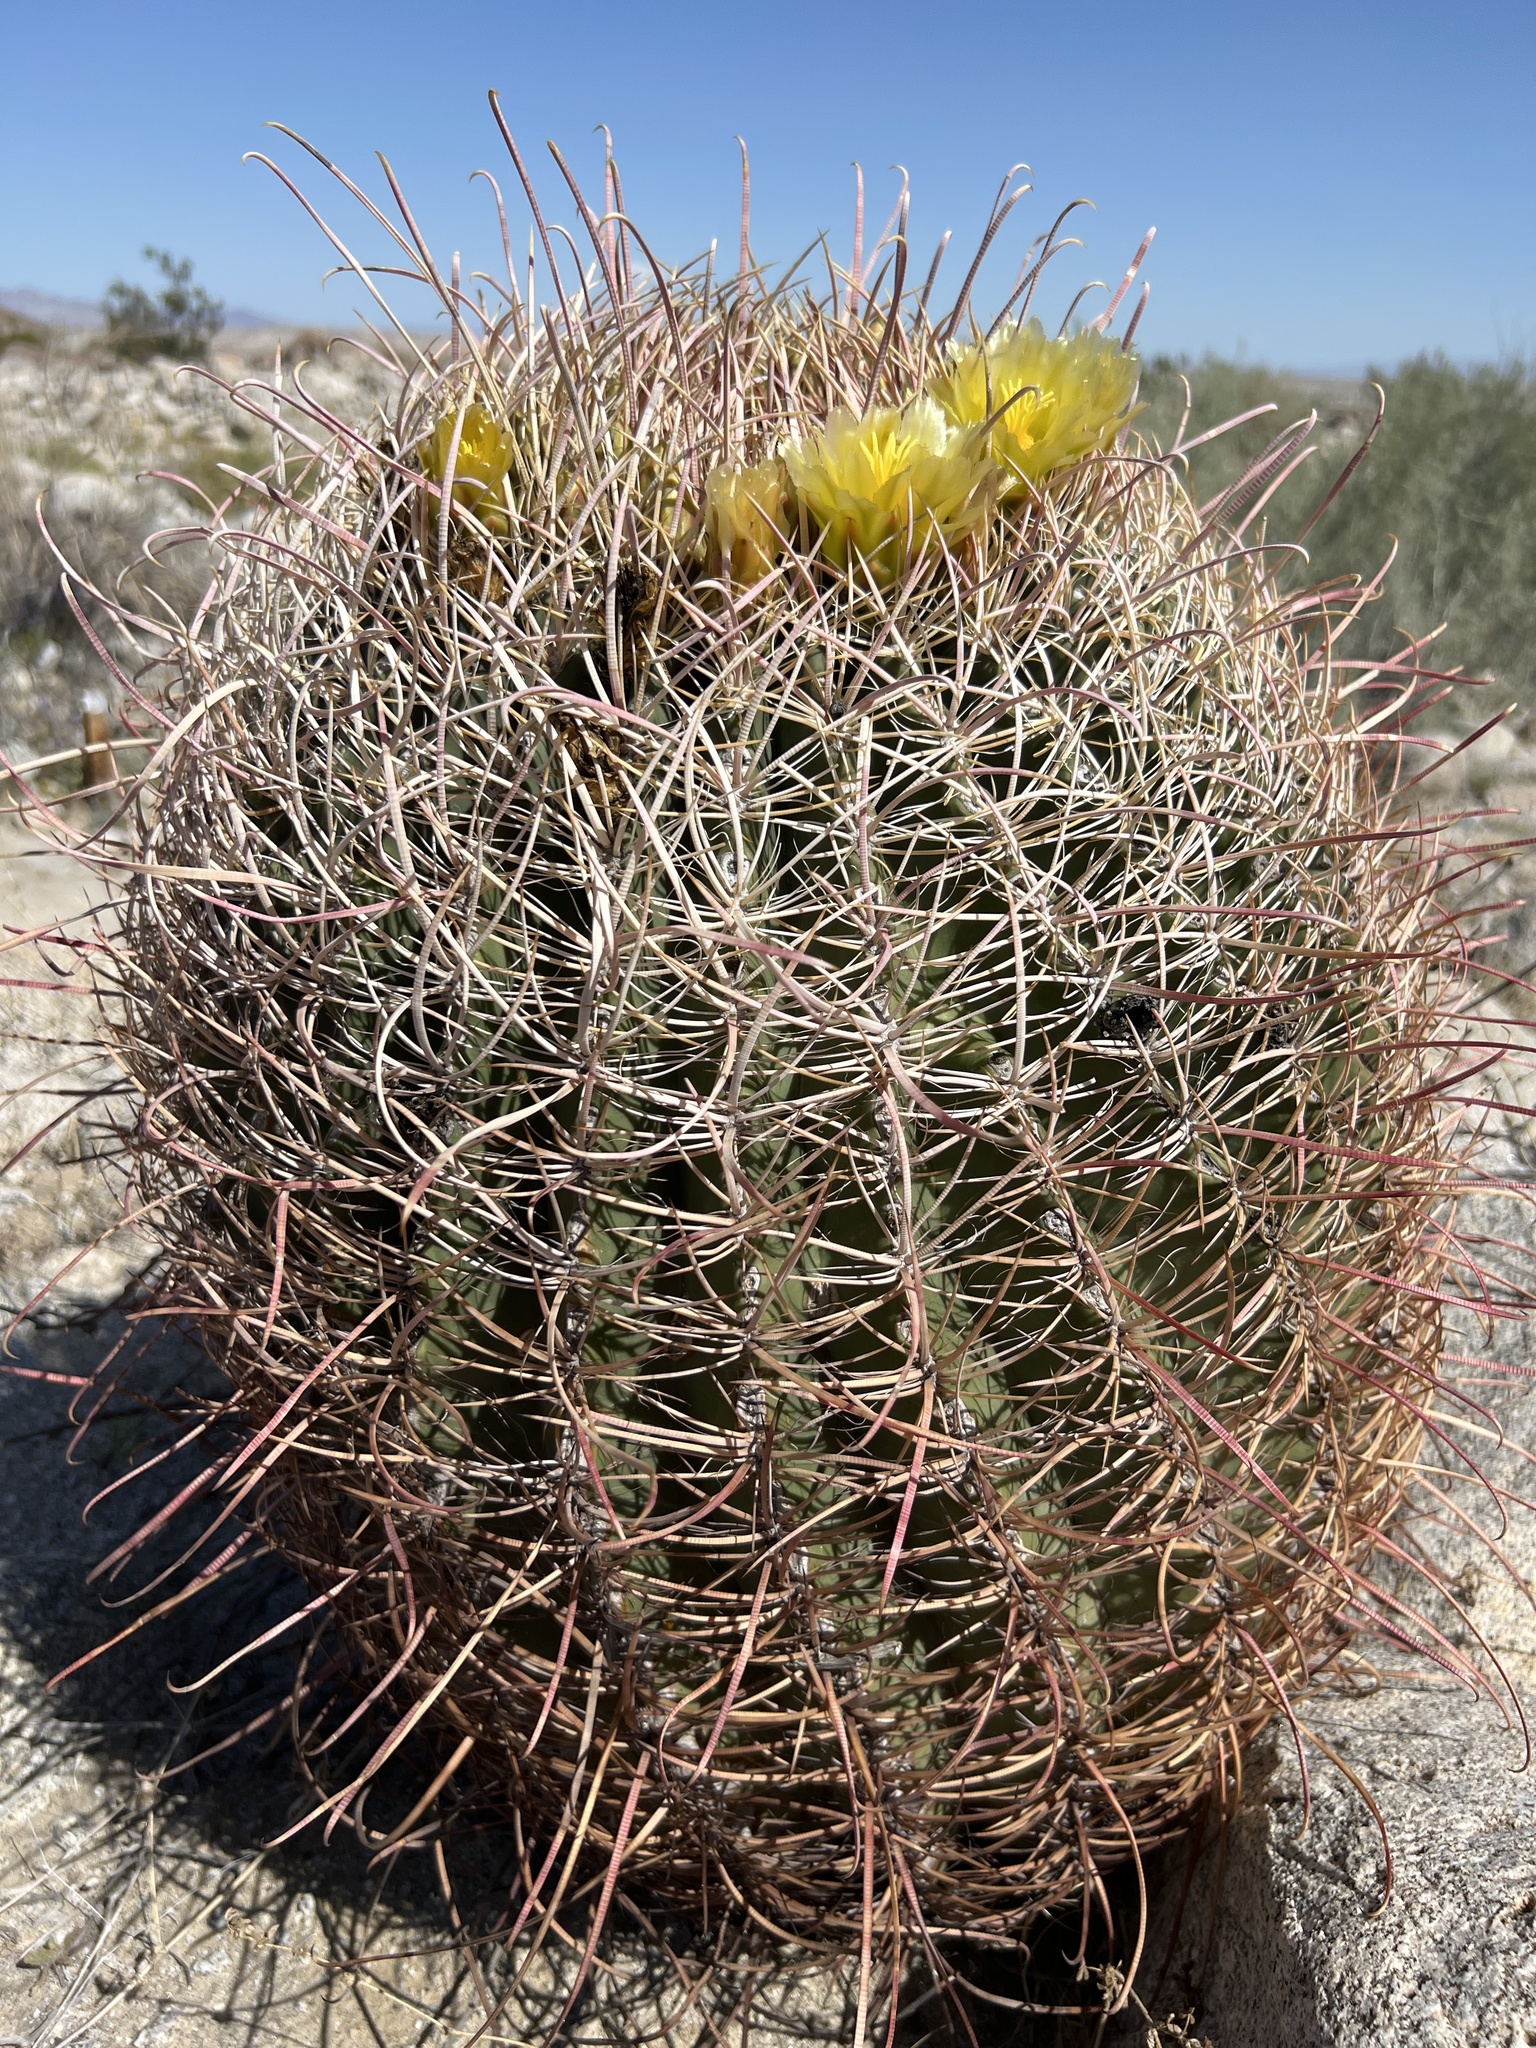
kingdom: Plantae
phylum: Tracheophyta
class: Magnoliopsida
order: Caryophyllales
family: Cactaceae
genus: Ferocactus
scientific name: Ferocactus cylindraceus
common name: California barrel cactus
